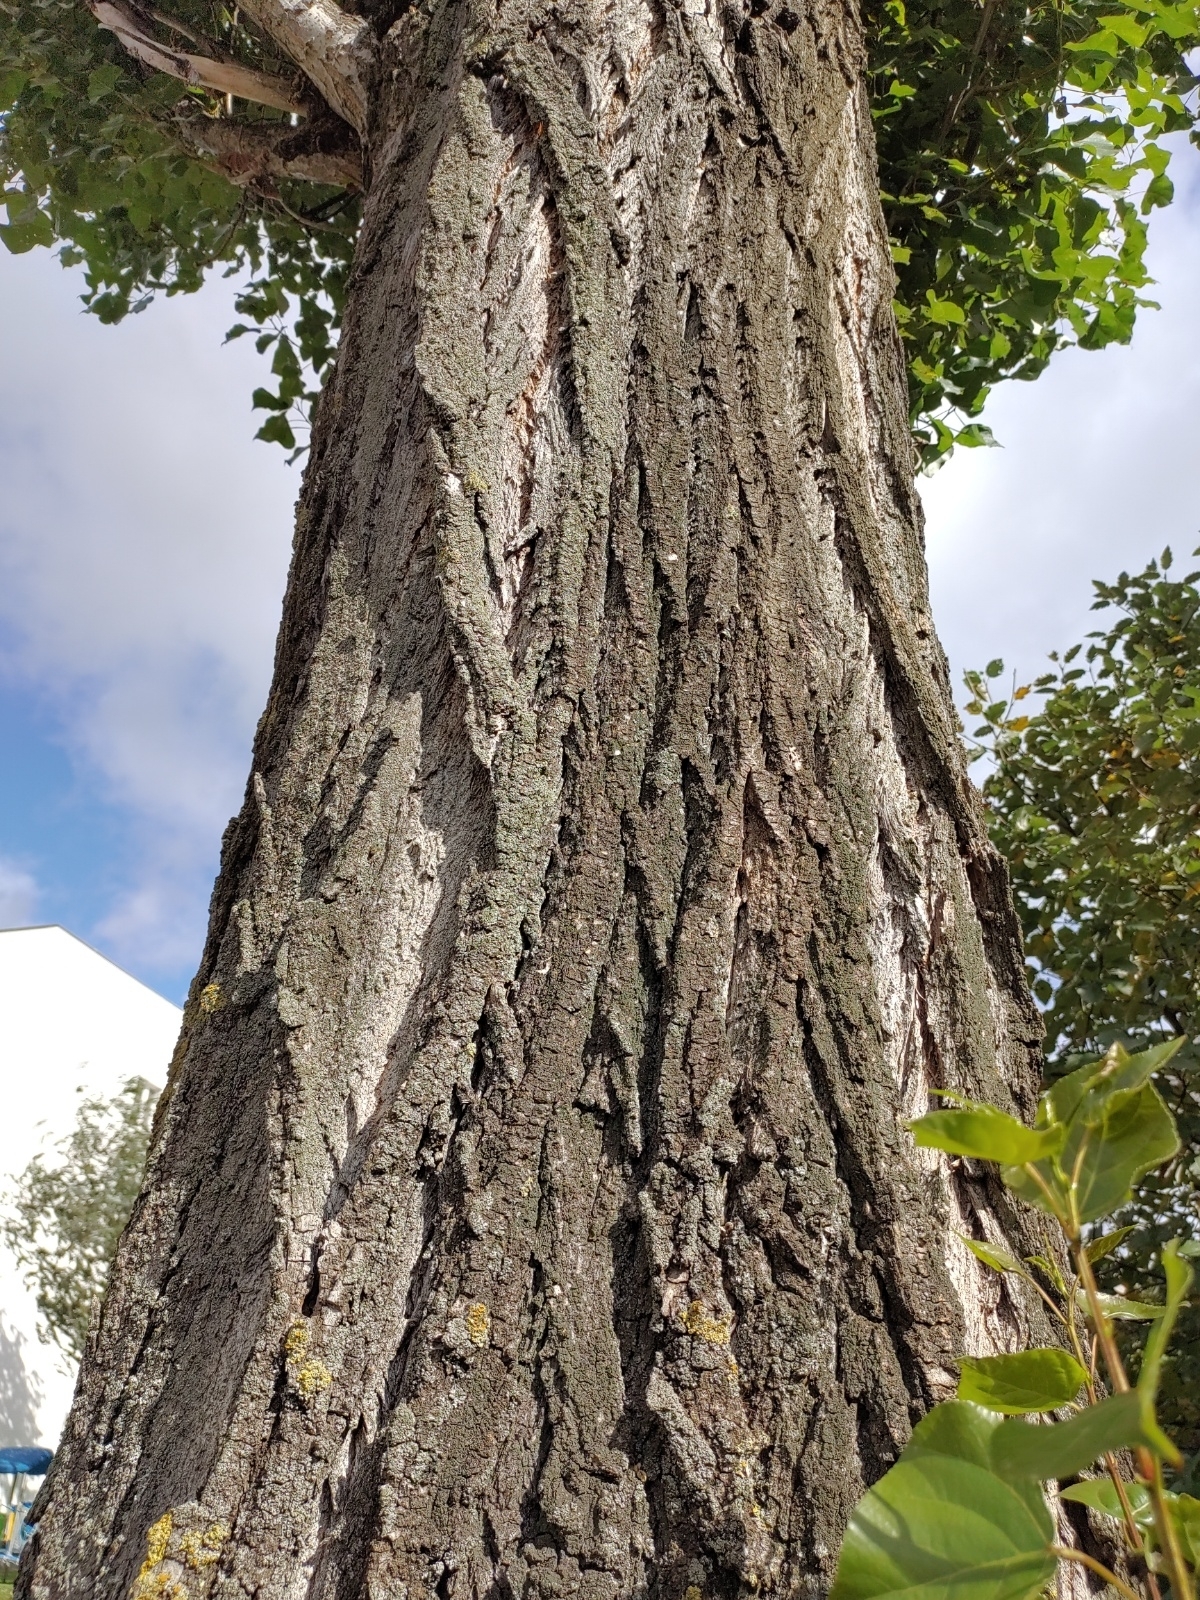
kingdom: Plantae
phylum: Tracheophyta
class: Magnoliopsida
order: Malpighiales
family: Salicaceae
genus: Populus
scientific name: Populus nigra
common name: Black poplar
